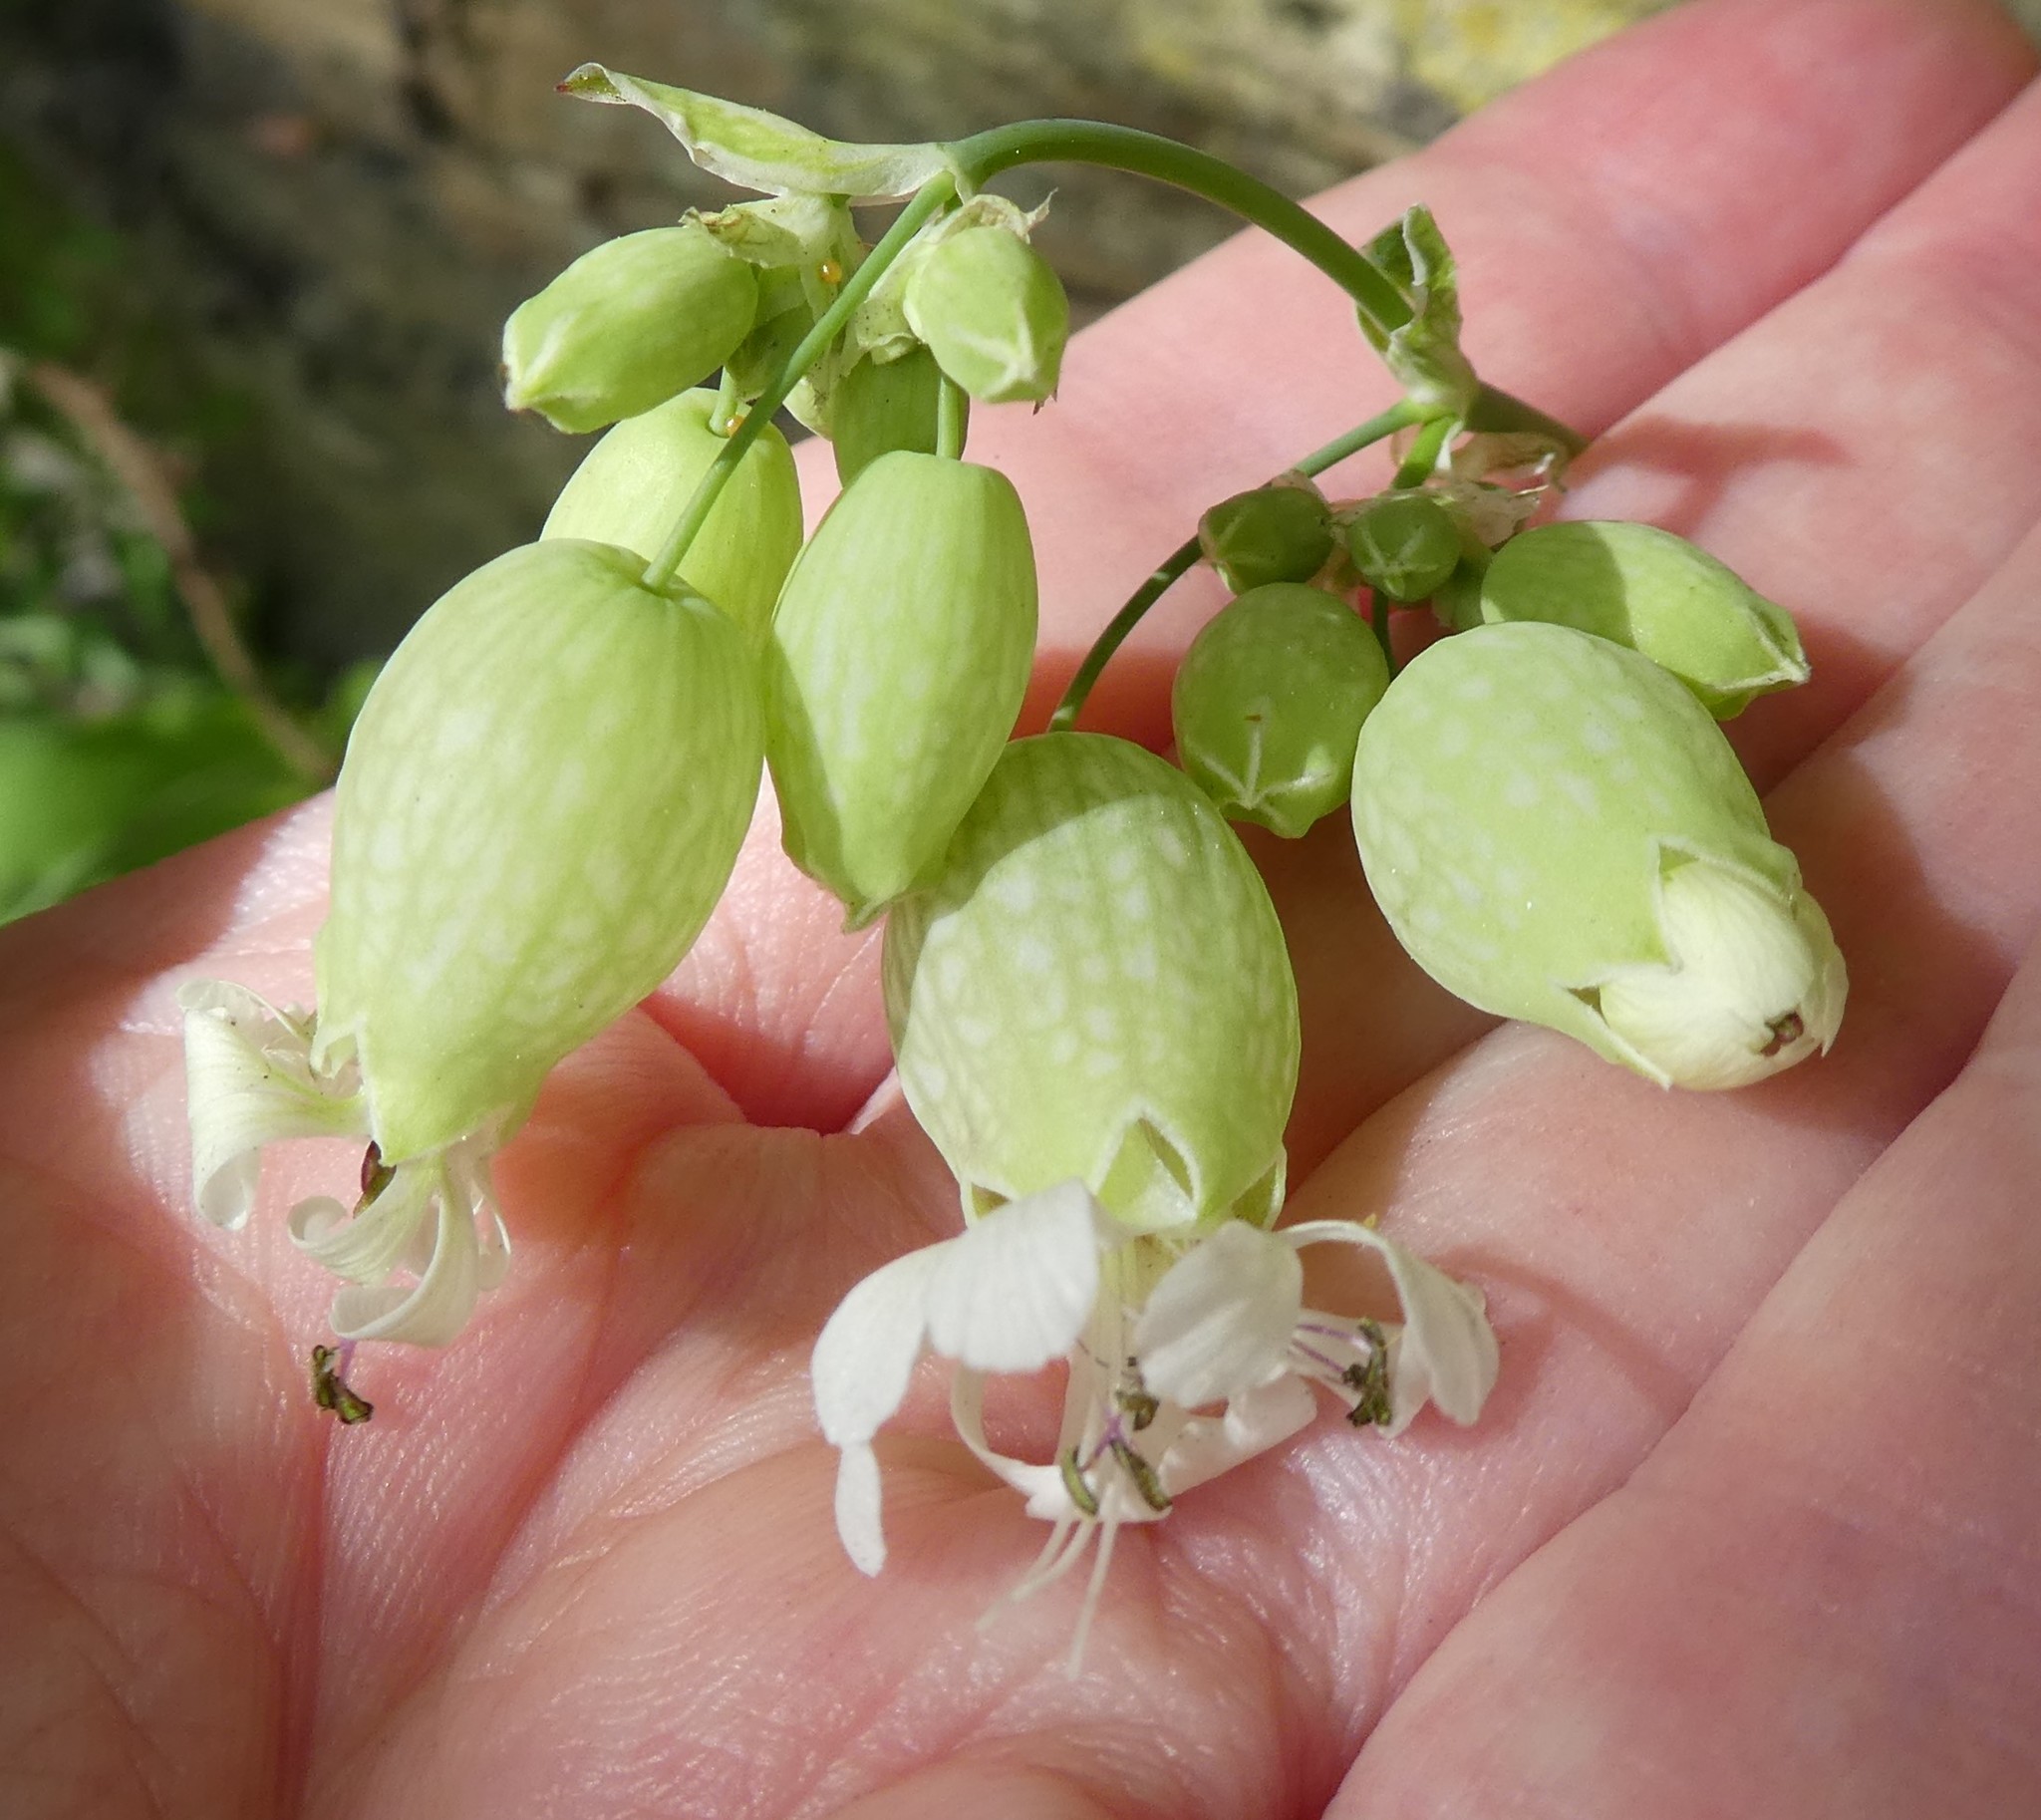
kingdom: Plantae
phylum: Tracheophyta
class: Magnoliopsida
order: Caryophyllales
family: Caryophyllaceae
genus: Silene
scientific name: Silene vulgaris
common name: Bladder campion
